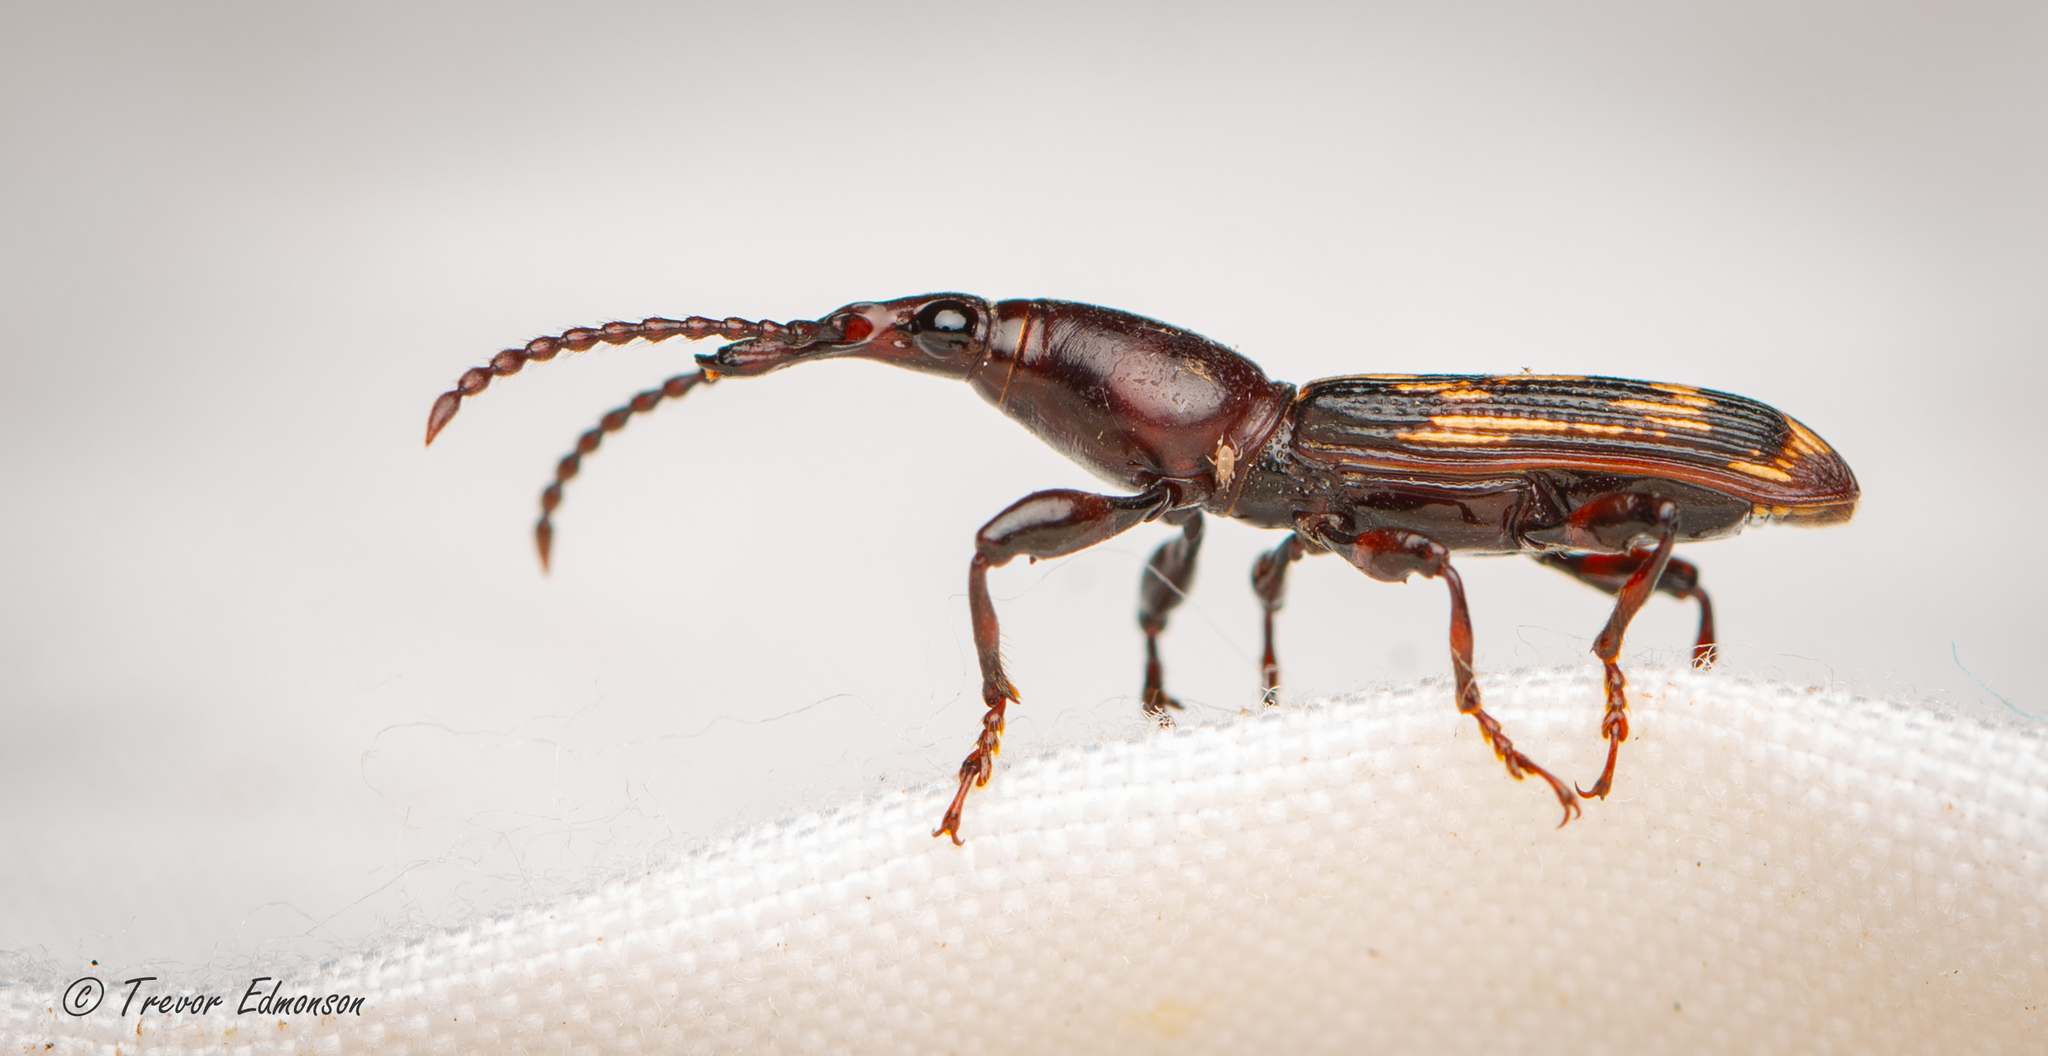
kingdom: Animalia
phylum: Arthropoda
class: Insecta
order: Coleoptera
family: Brentidae
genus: Arrenodes
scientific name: Arrenodes minutus
